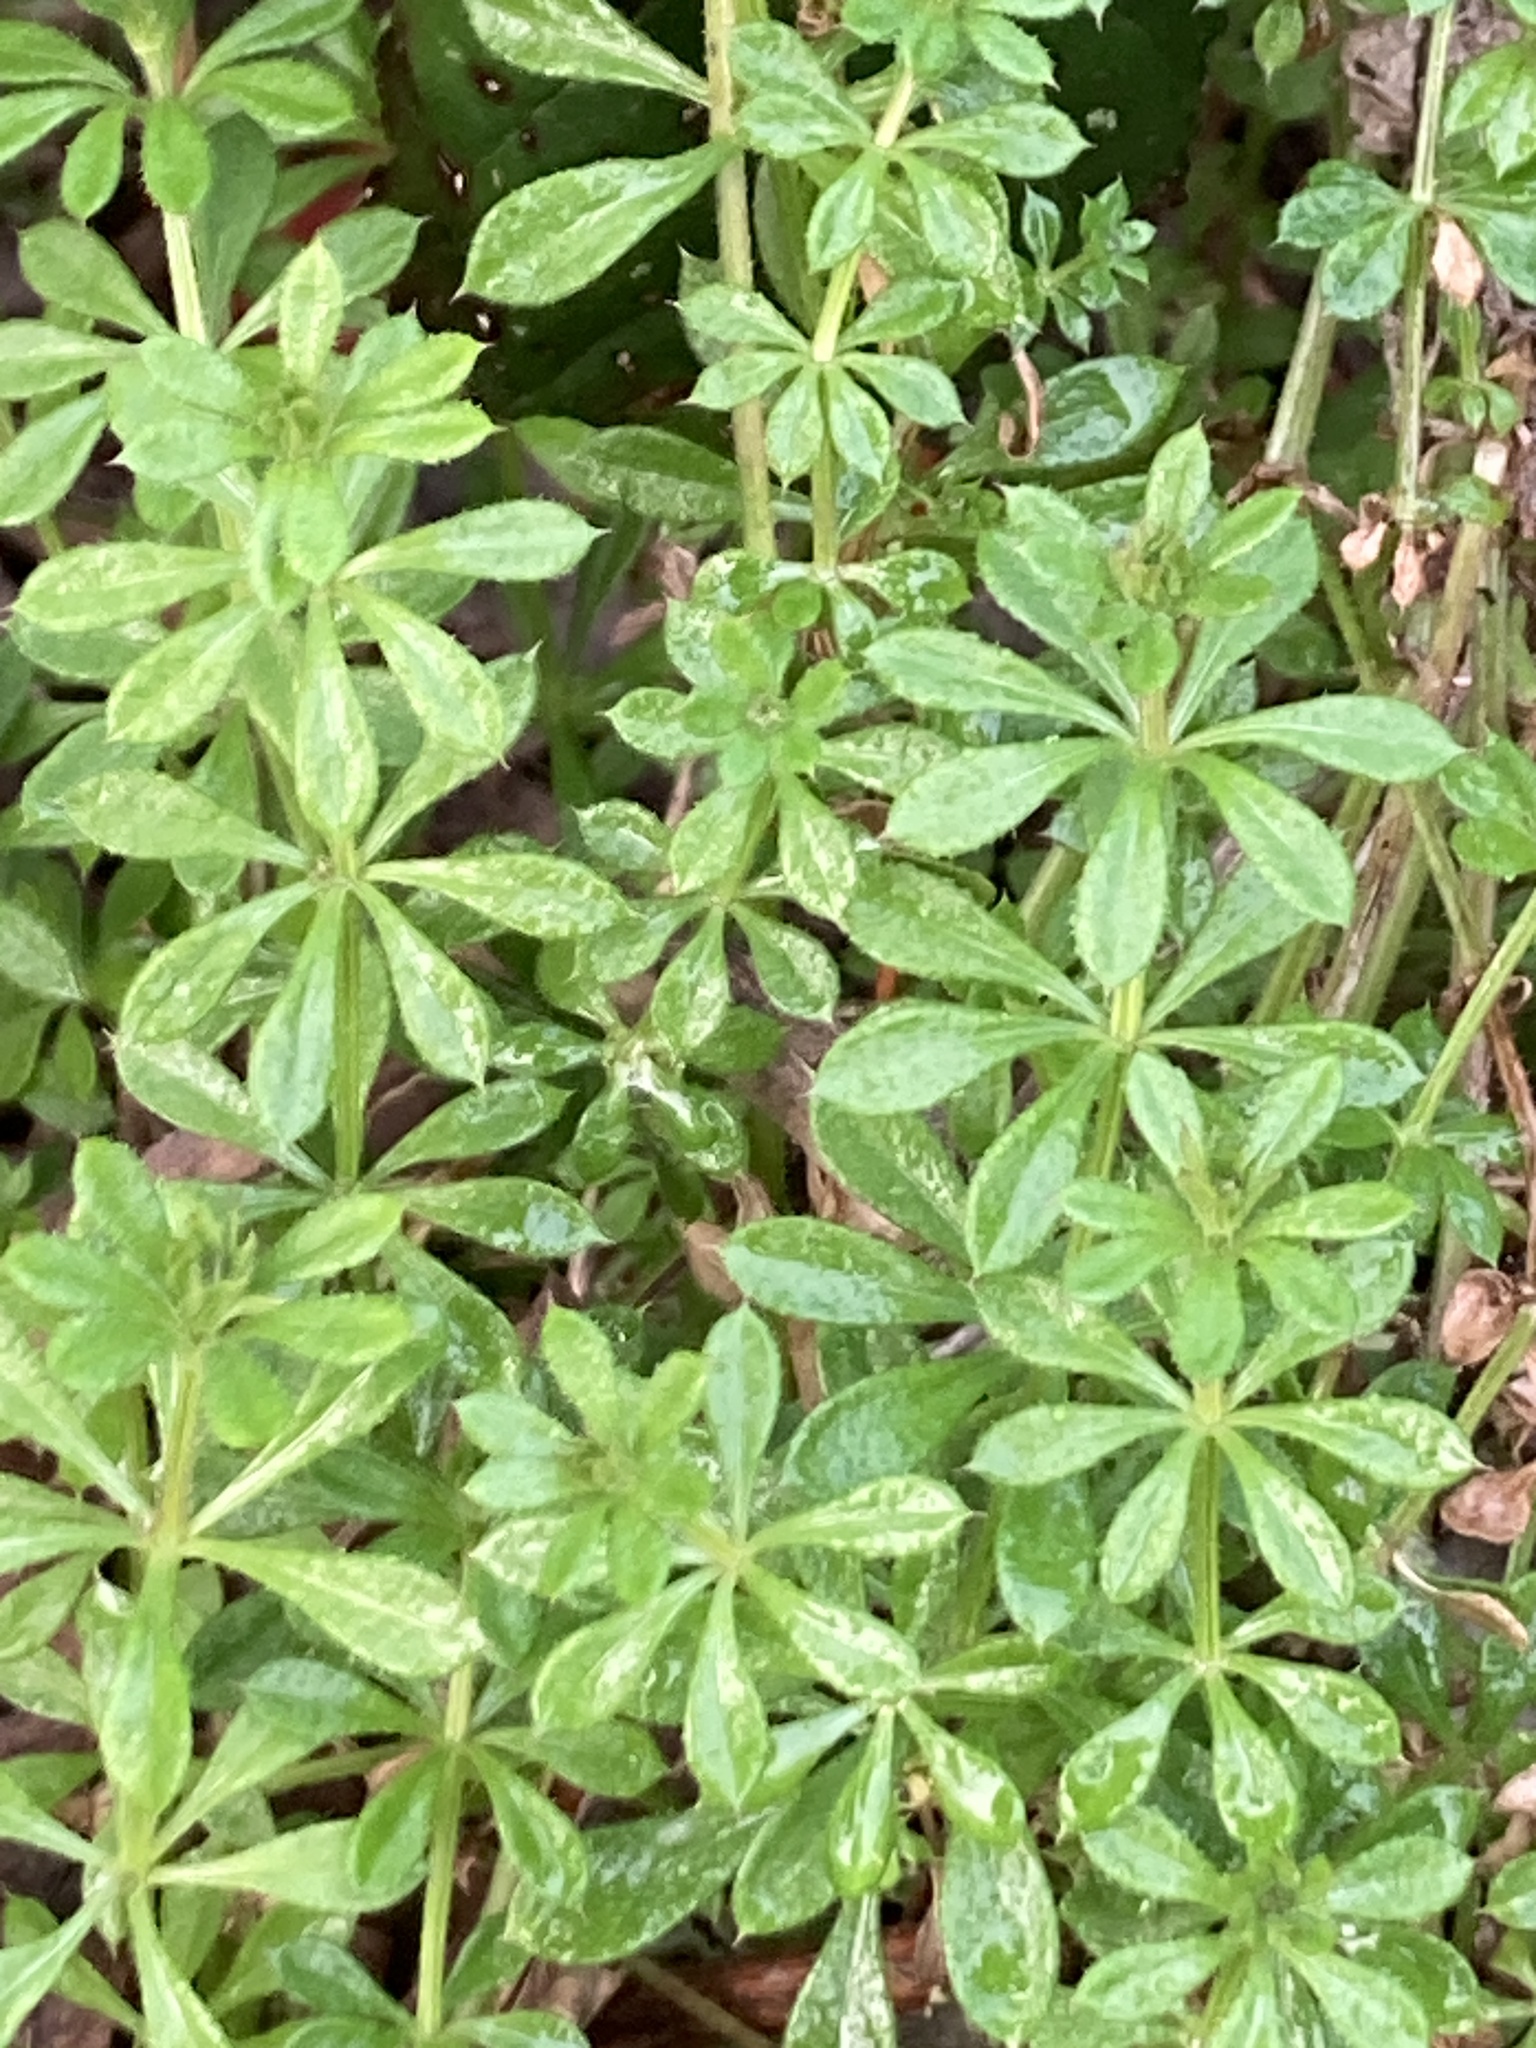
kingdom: Plantae
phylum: Tracheophyta
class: Magnoliopsida
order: Gentianales
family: Rubiaceae
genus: Galium
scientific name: Galium aparine
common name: Cleavers
